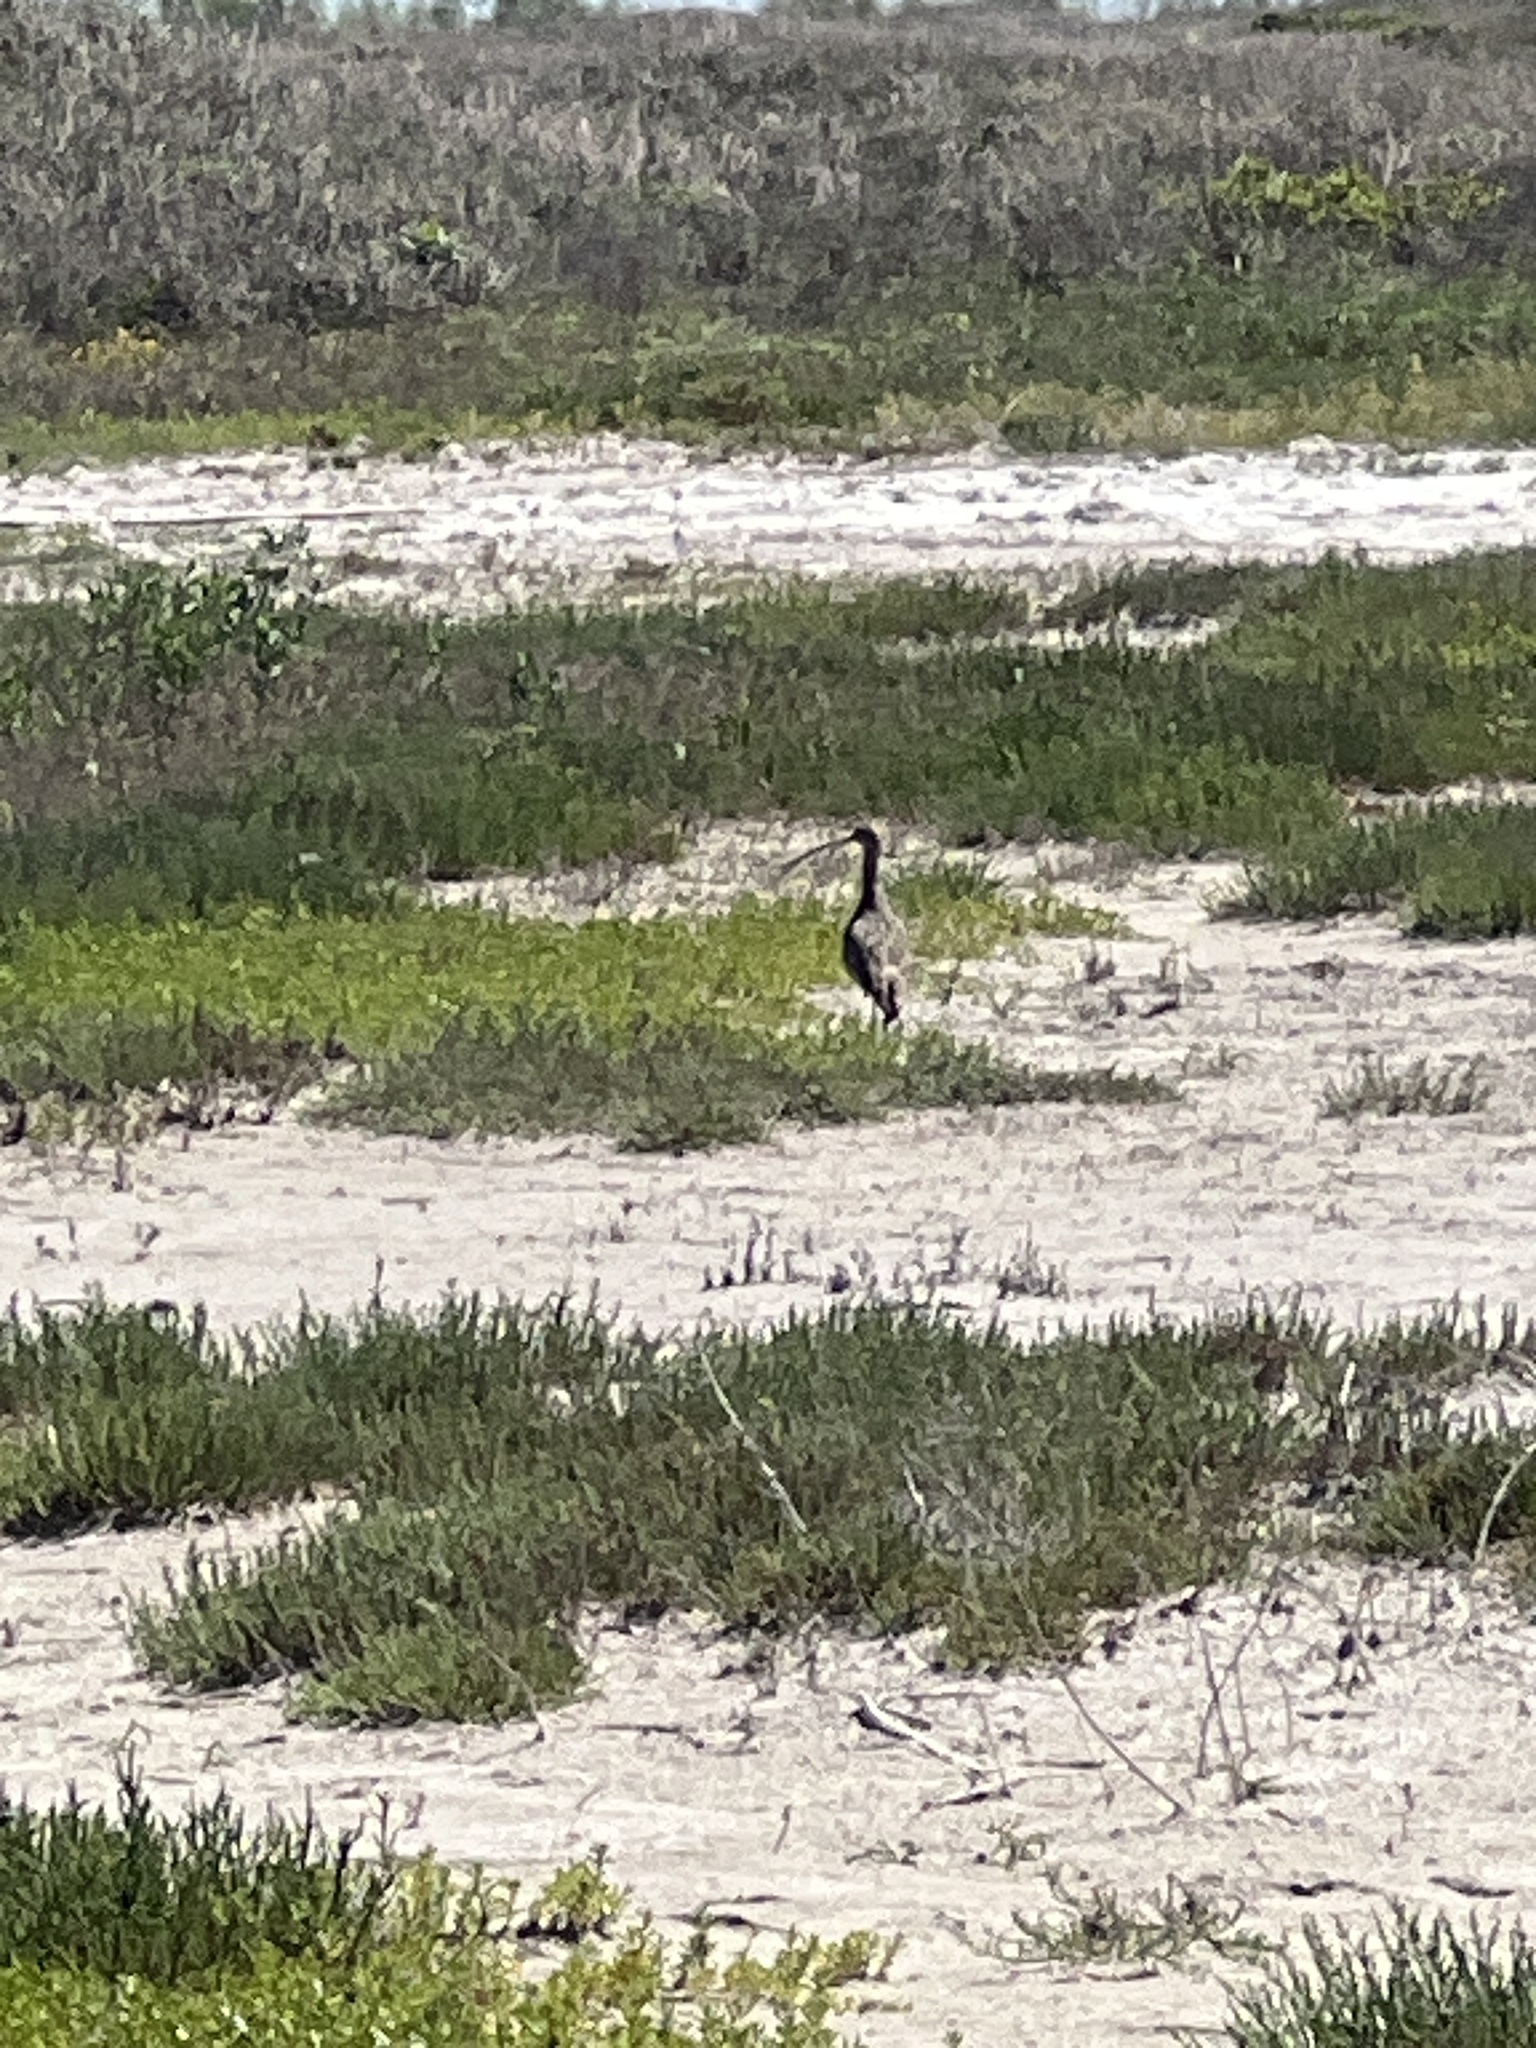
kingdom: Animalia
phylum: Chordata
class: Aves
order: Charadriiformes
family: Scolopacidae
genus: Numenius
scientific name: Numenius americanus
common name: Long-billed curlew
